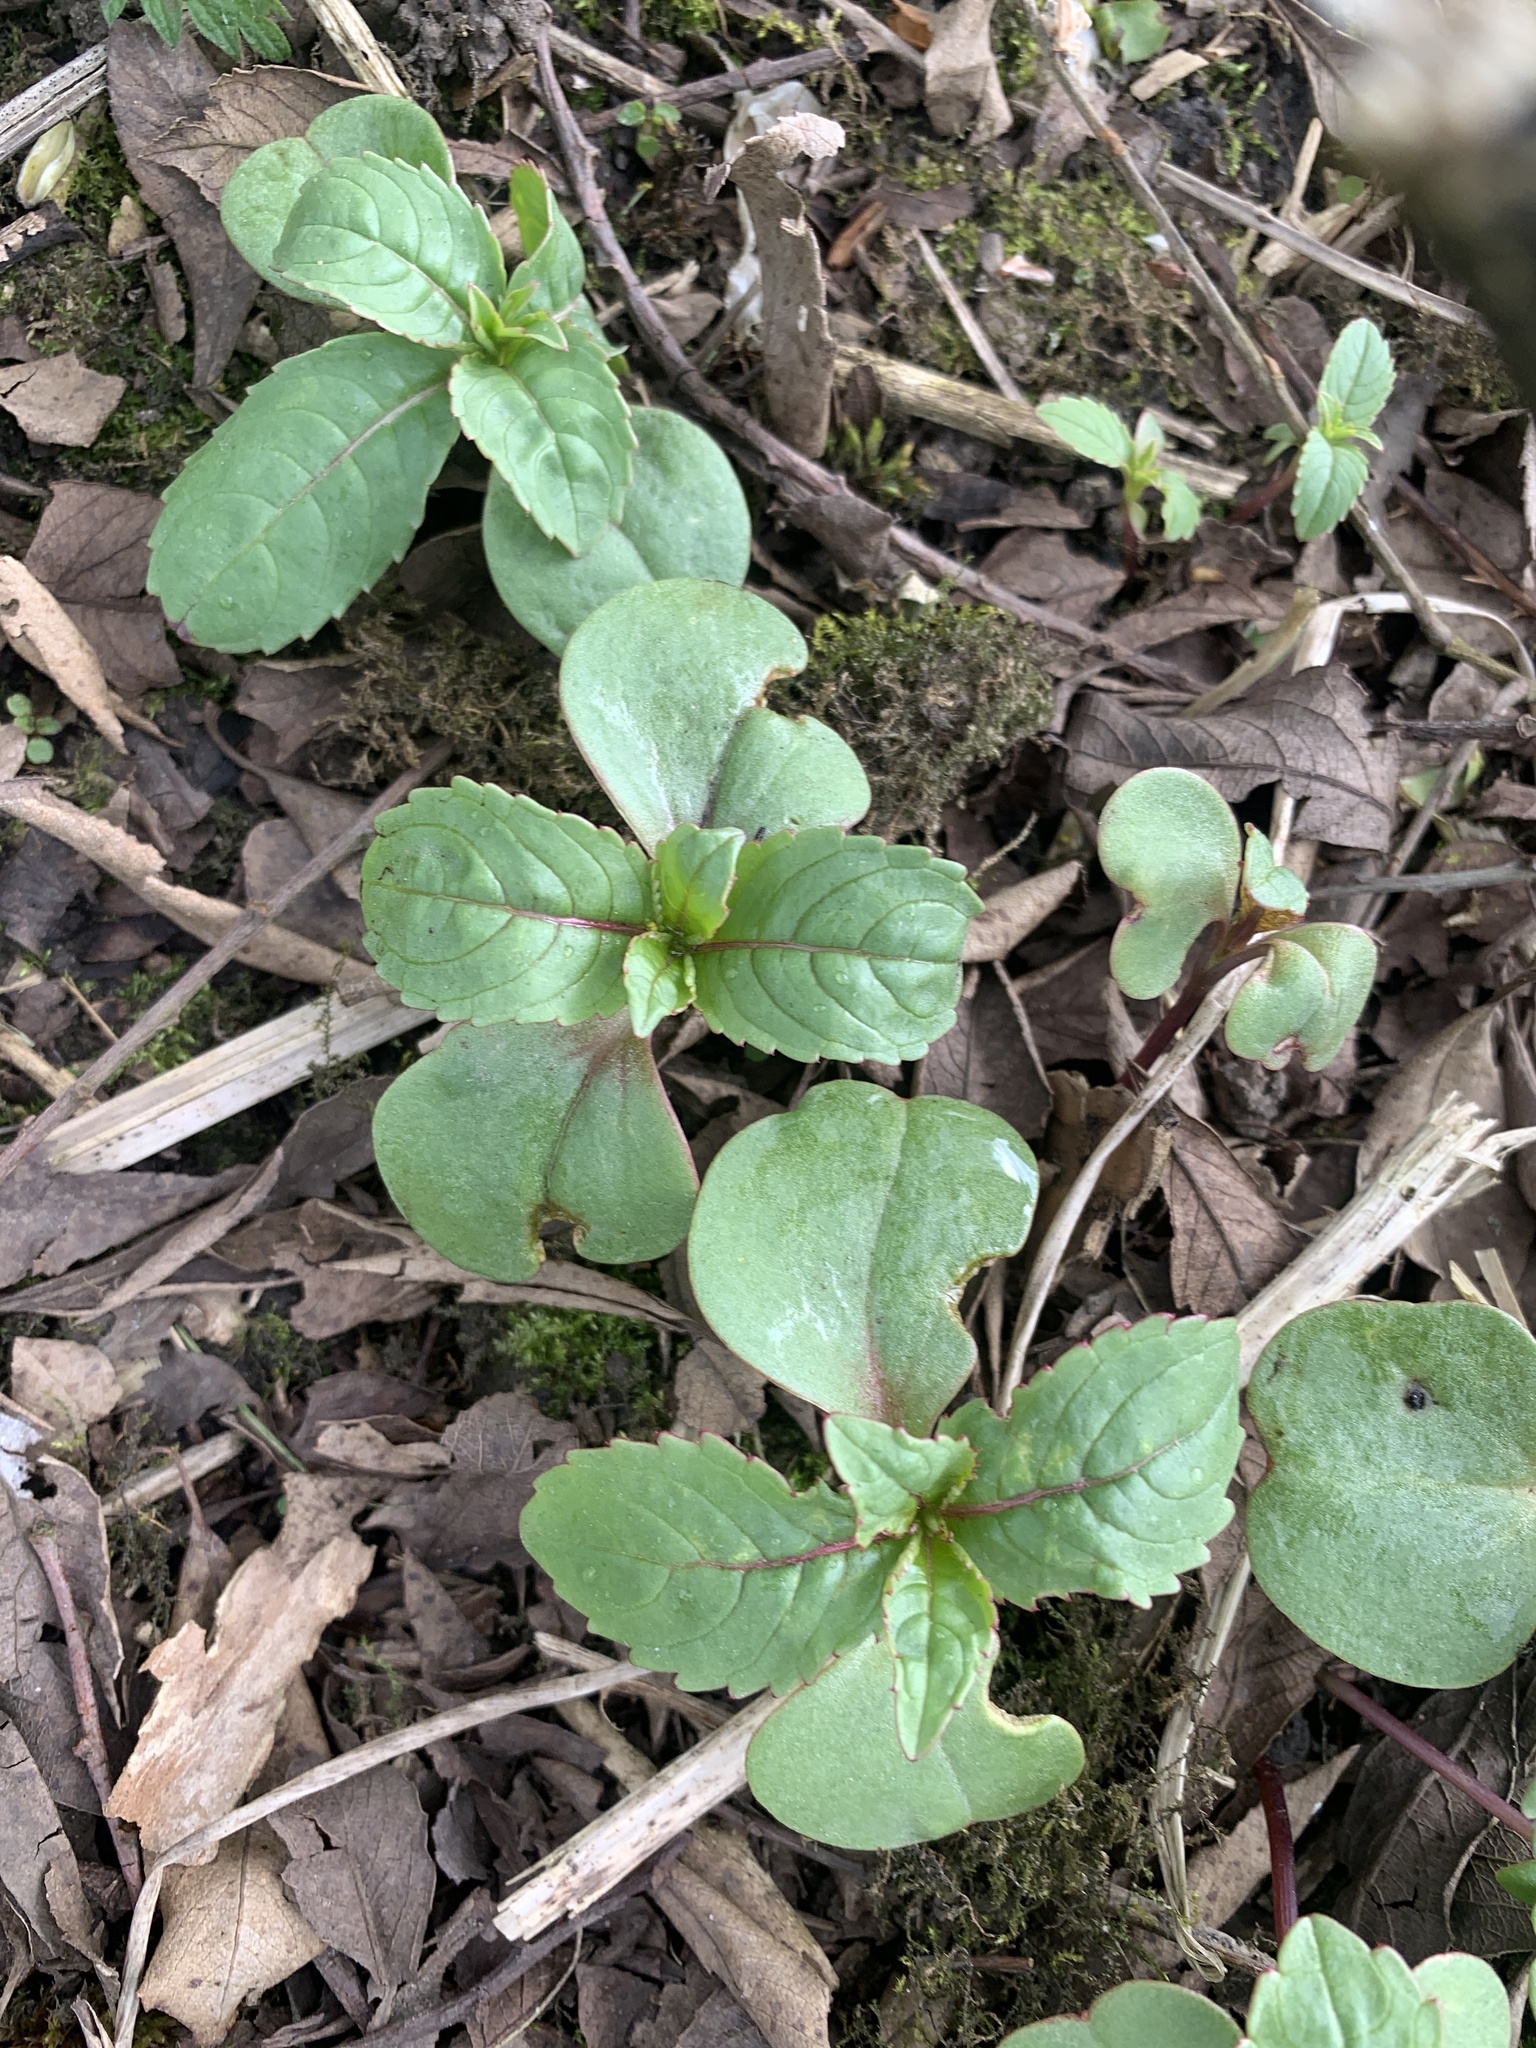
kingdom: Plantae
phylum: Tracheophyta
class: Magnoliopsida
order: Ericales
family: Balsaminaceae
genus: Impatiens
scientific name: Impatiens glandulifera
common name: Himalayan balsam
